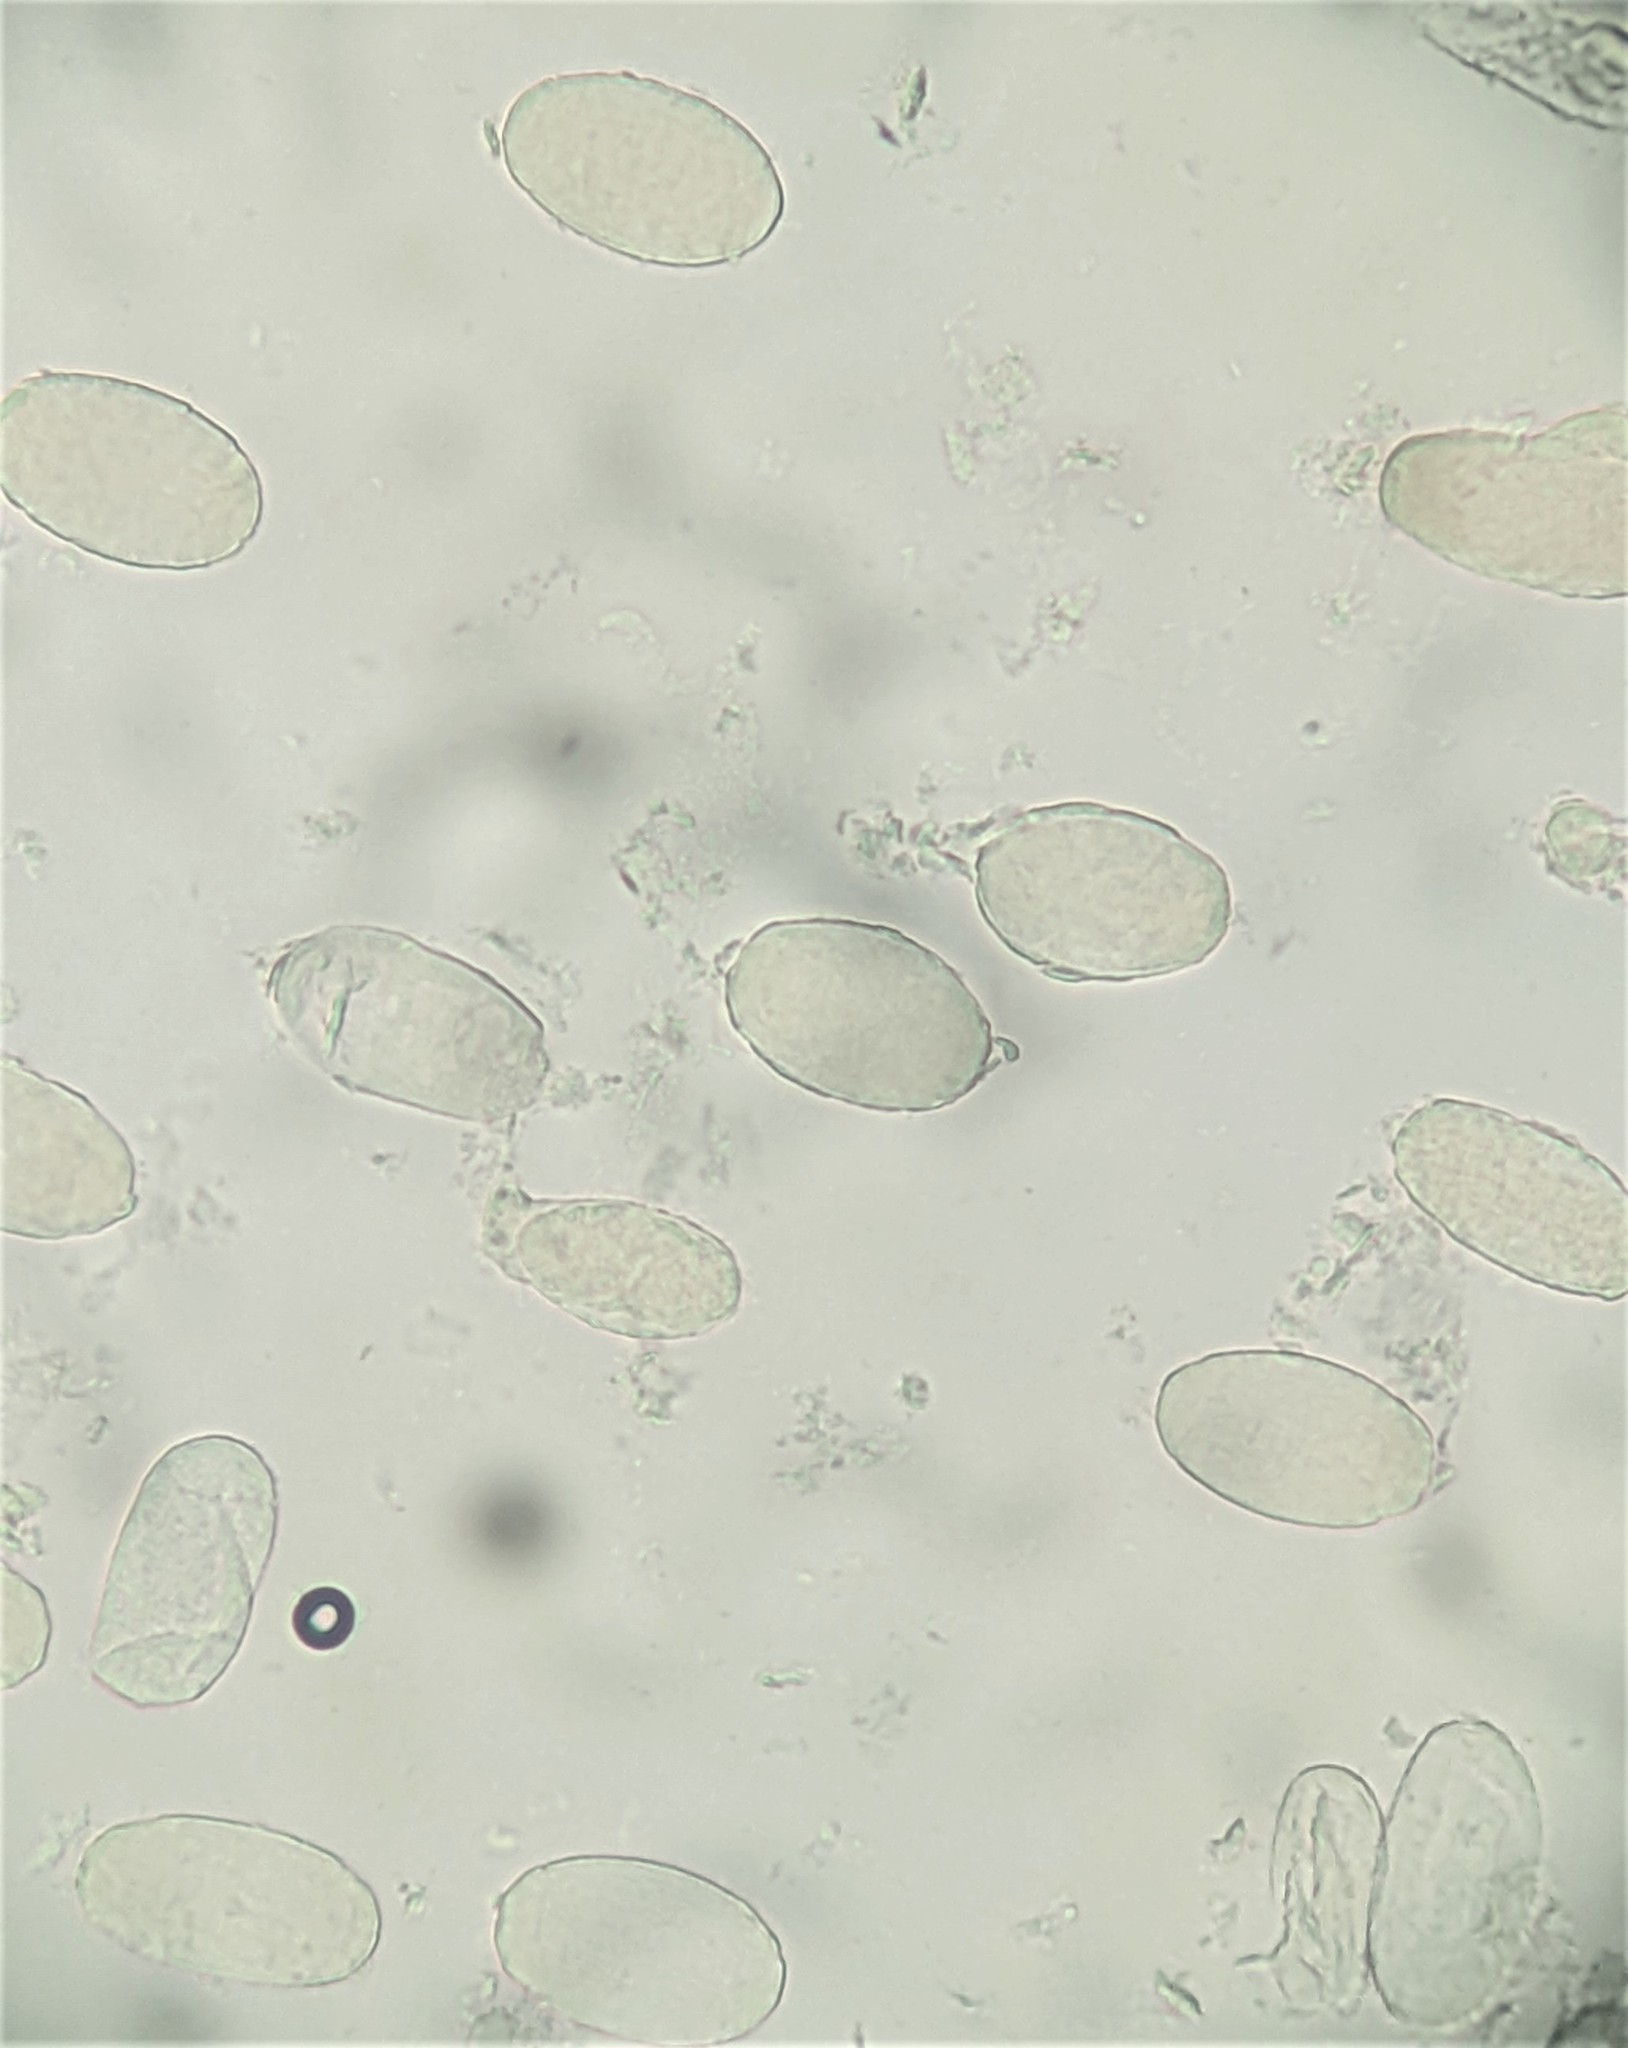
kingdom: Fungi
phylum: Ascomycota
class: Leotiomycetes
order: Helotiales
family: Erysiphaceae
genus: Erysiphe
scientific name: Erysiphe australiana
